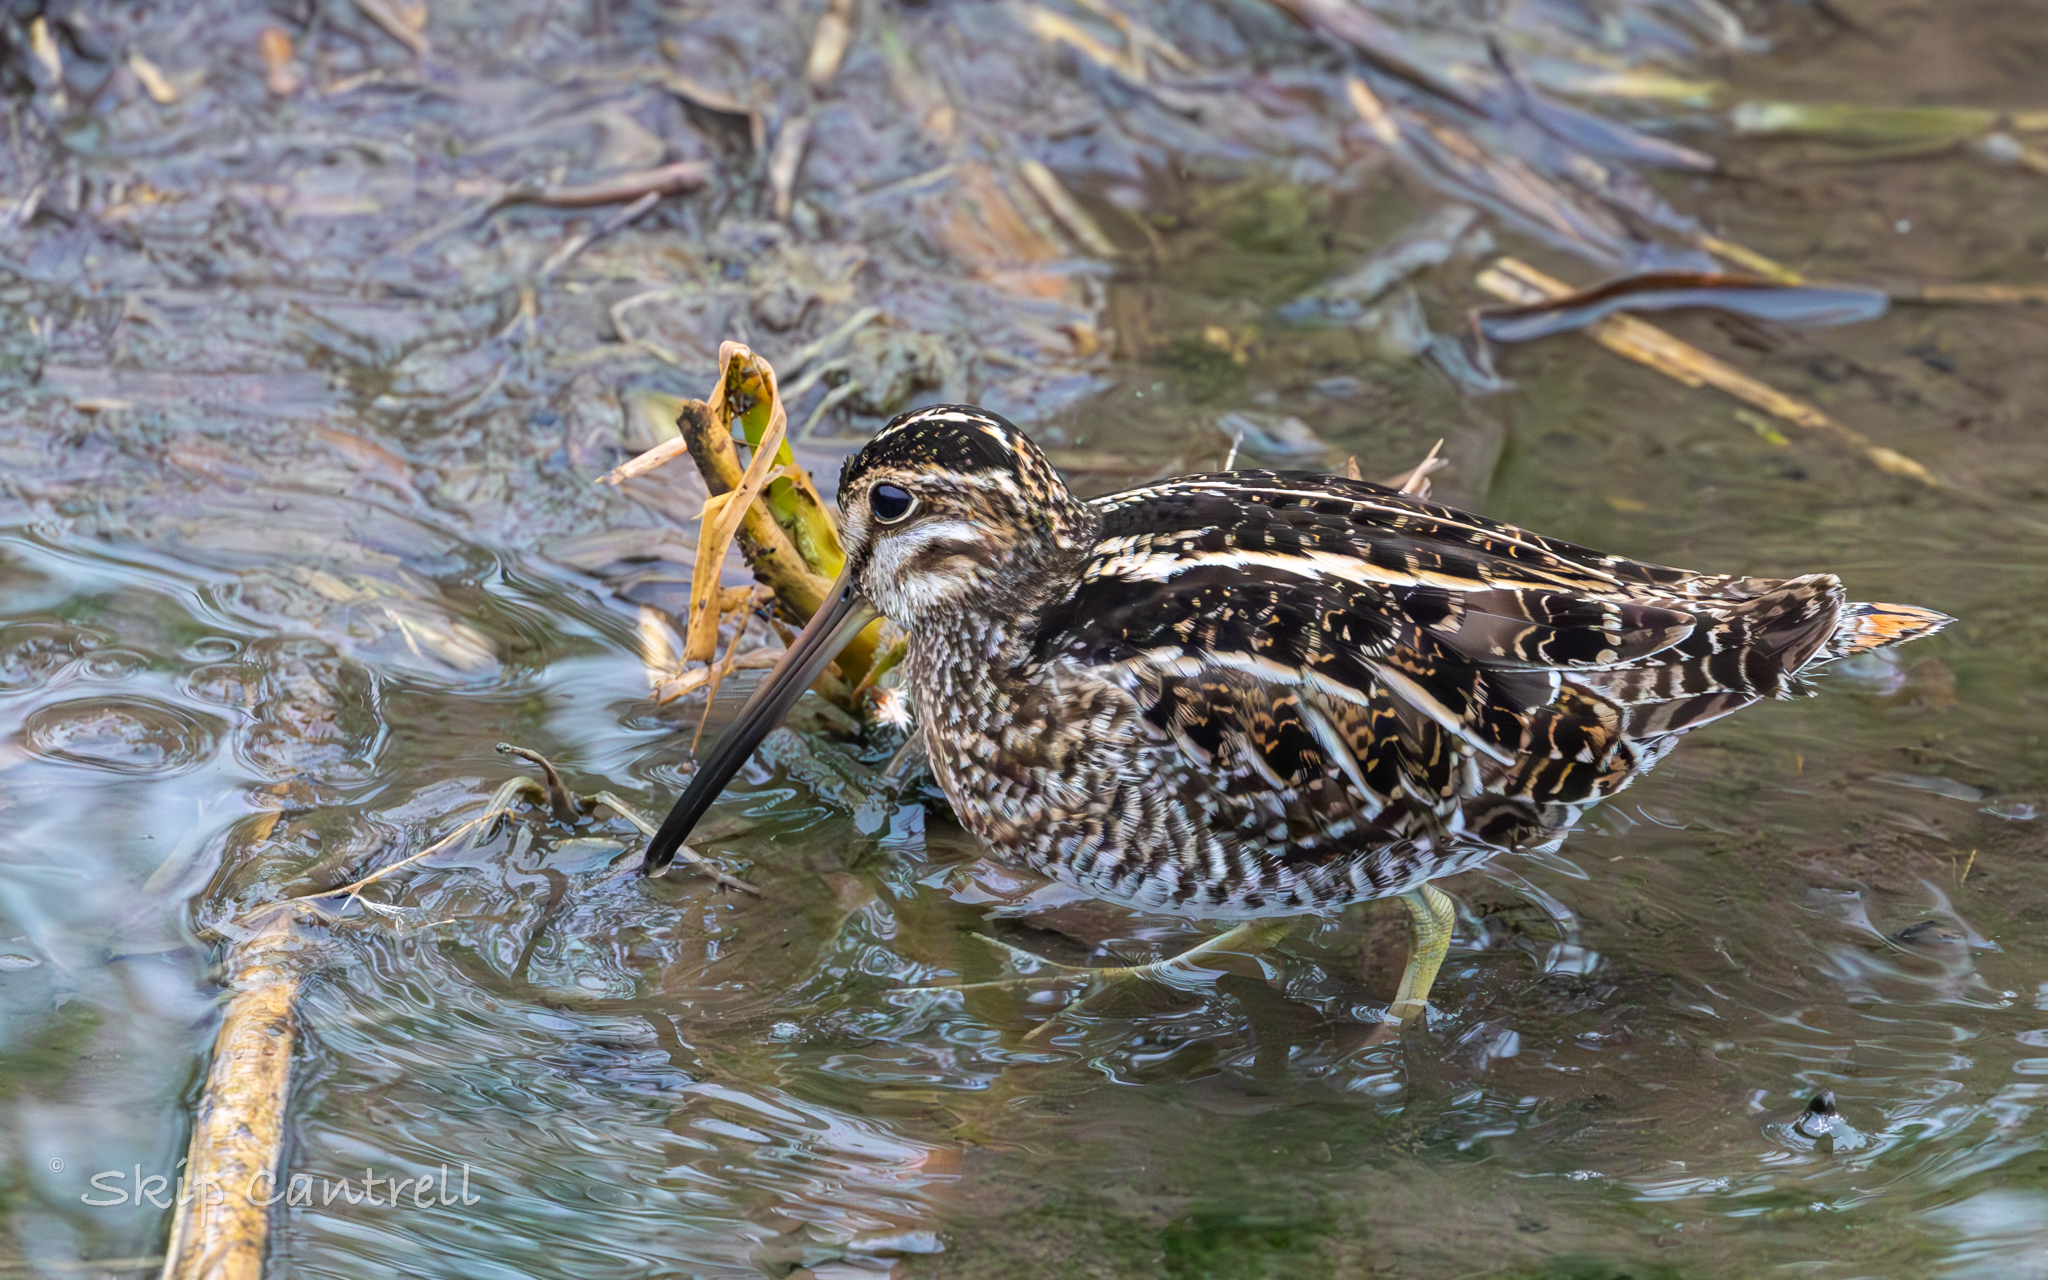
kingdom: Animalia
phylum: Chordata
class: Aves
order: Charadriiformes
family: Scolopacidae
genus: Gallinago
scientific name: Gallinago delicata
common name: Wilson's snipe
